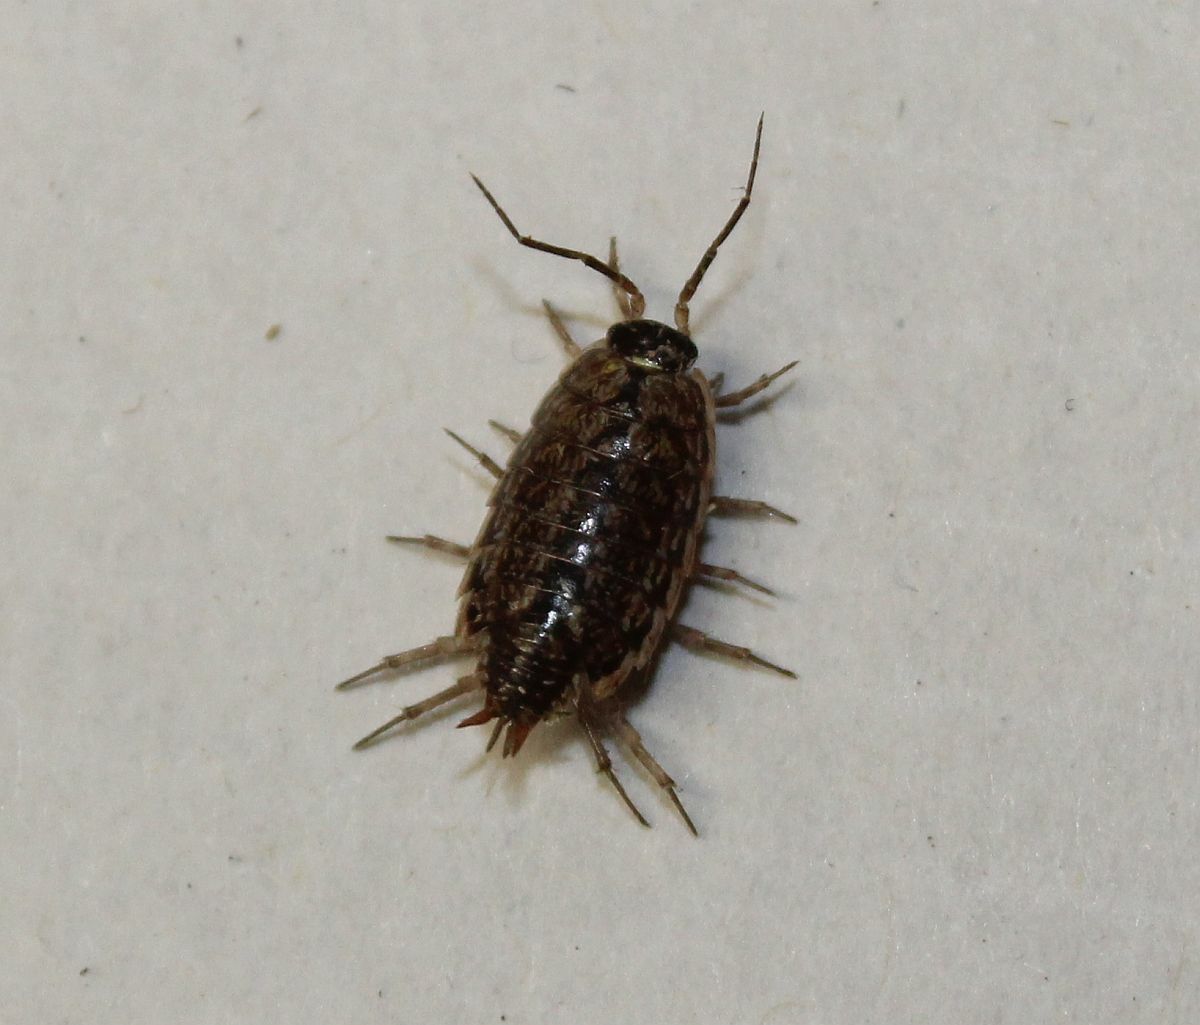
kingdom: Animalia
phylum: Arthropoda
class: Malacostraca
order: Isopoda
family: Philosciidae
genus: Philoscia
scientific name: Philoscia muscorum
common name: Common striped woodlouse
